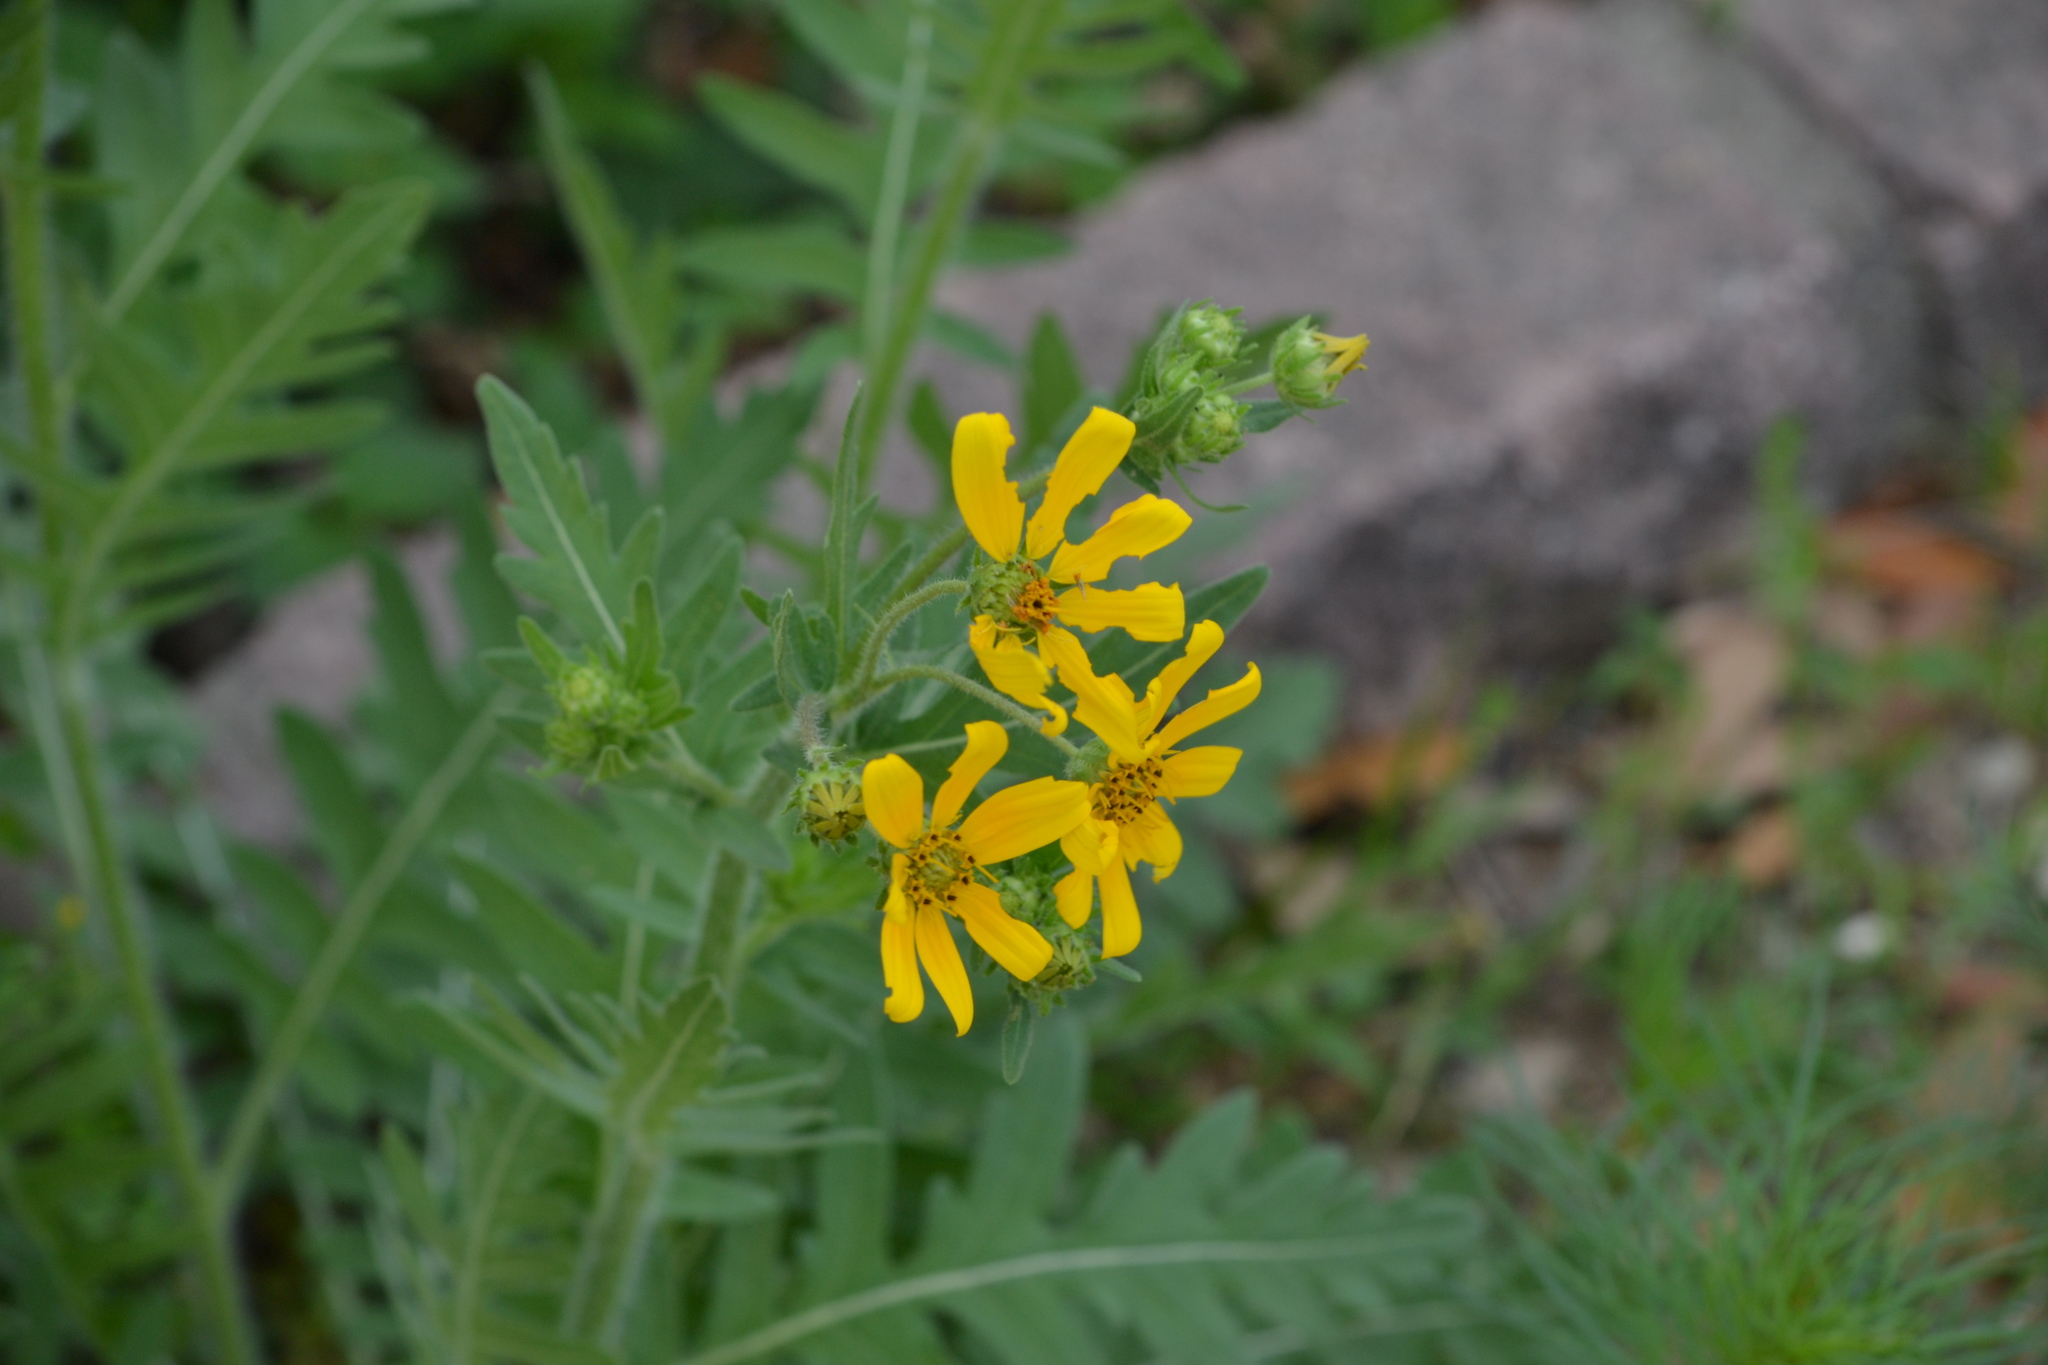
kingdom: Plantae
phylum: Tracheophyta
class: Magnoliopsida
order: Asterales
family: Asteraceae
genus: Engelmannia
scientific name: Engelmannia peristenia
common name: Engelmann's daisy
